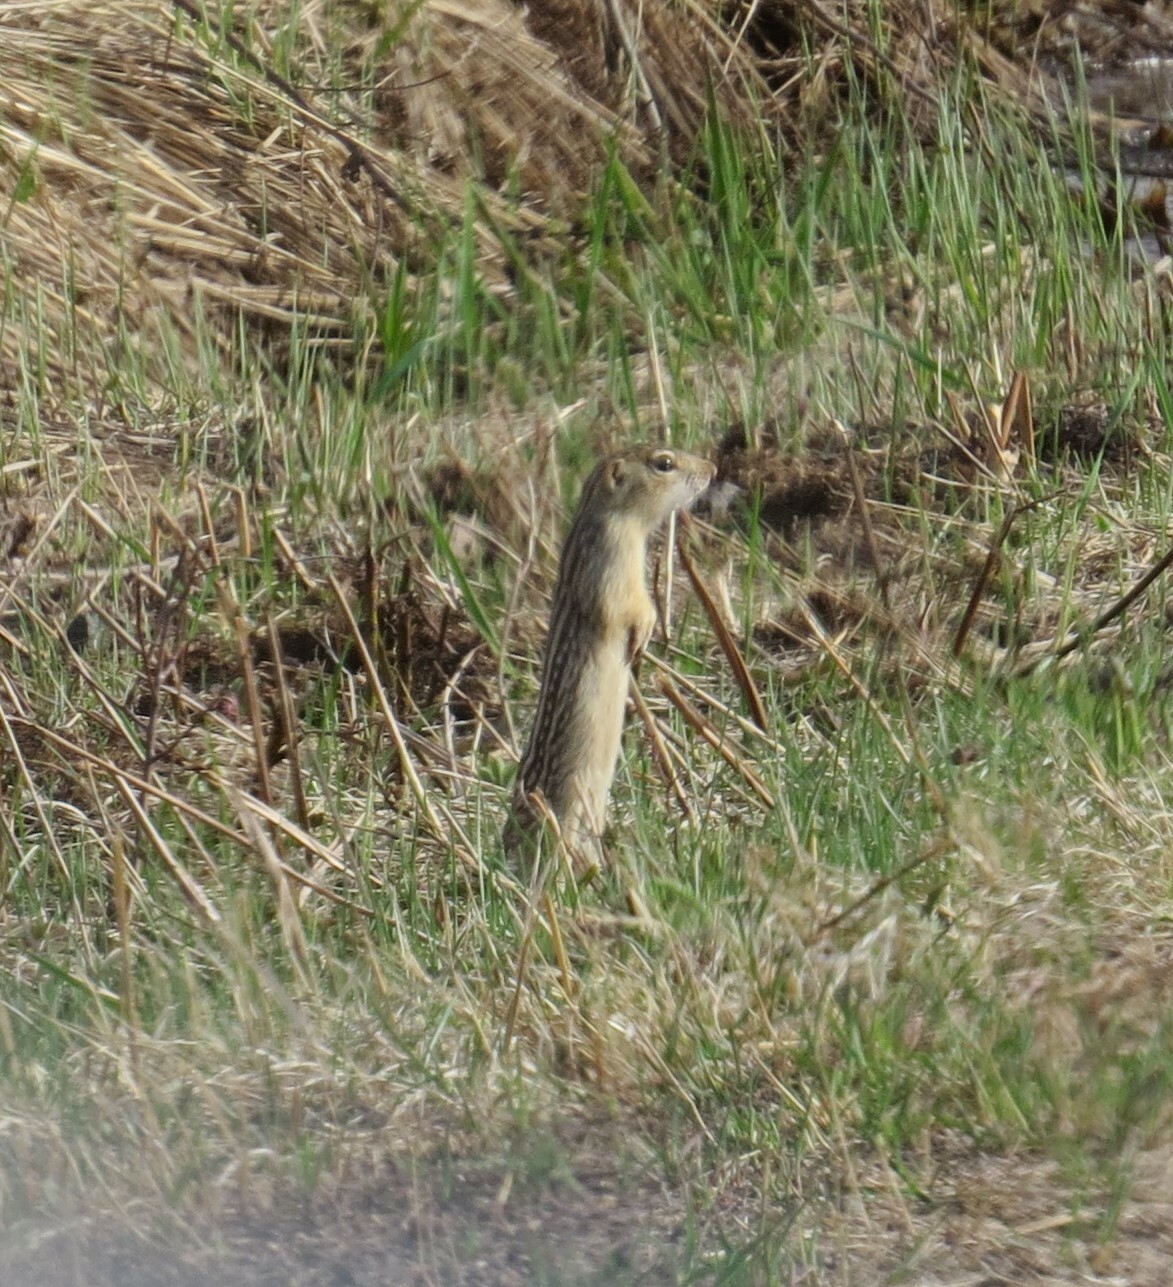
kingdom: Animalia
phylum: Chordata
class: Mammalia
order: Rodentia
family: Sciuridae
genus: Ictidomys
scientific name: Ictidomys tridecemlineatus
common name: Thirteen-lined ground squirrel
